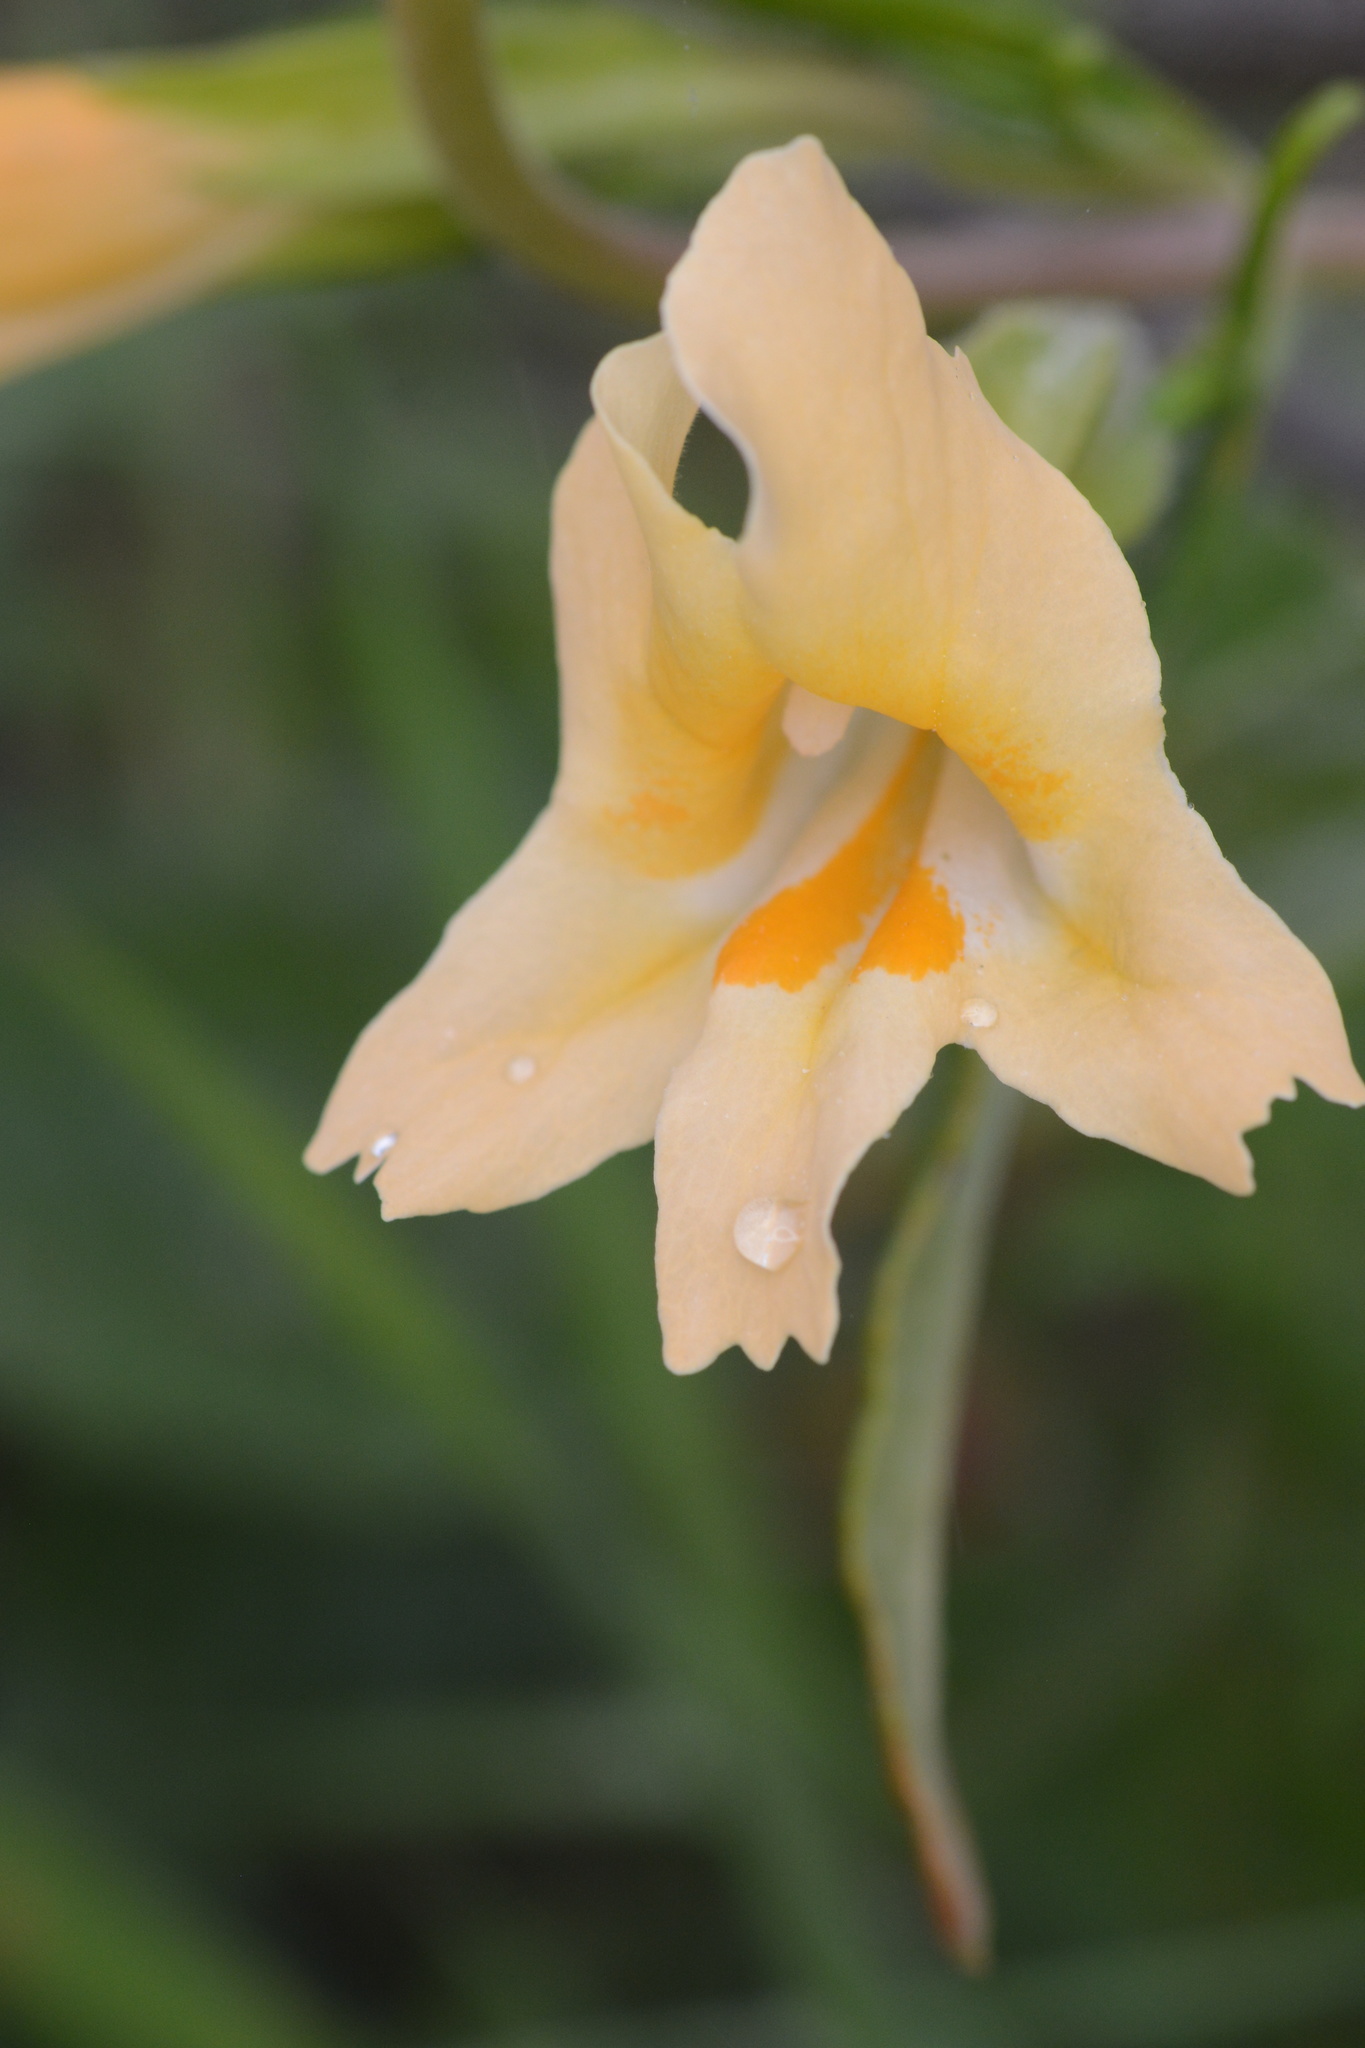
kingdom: Plantae
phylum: Tracheophyta
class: Magnoliopsida
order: Lamiales
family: Phrymaceae
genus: Diplacus
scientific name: Diplacus aurantiacus
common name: Bush monkey-flower
